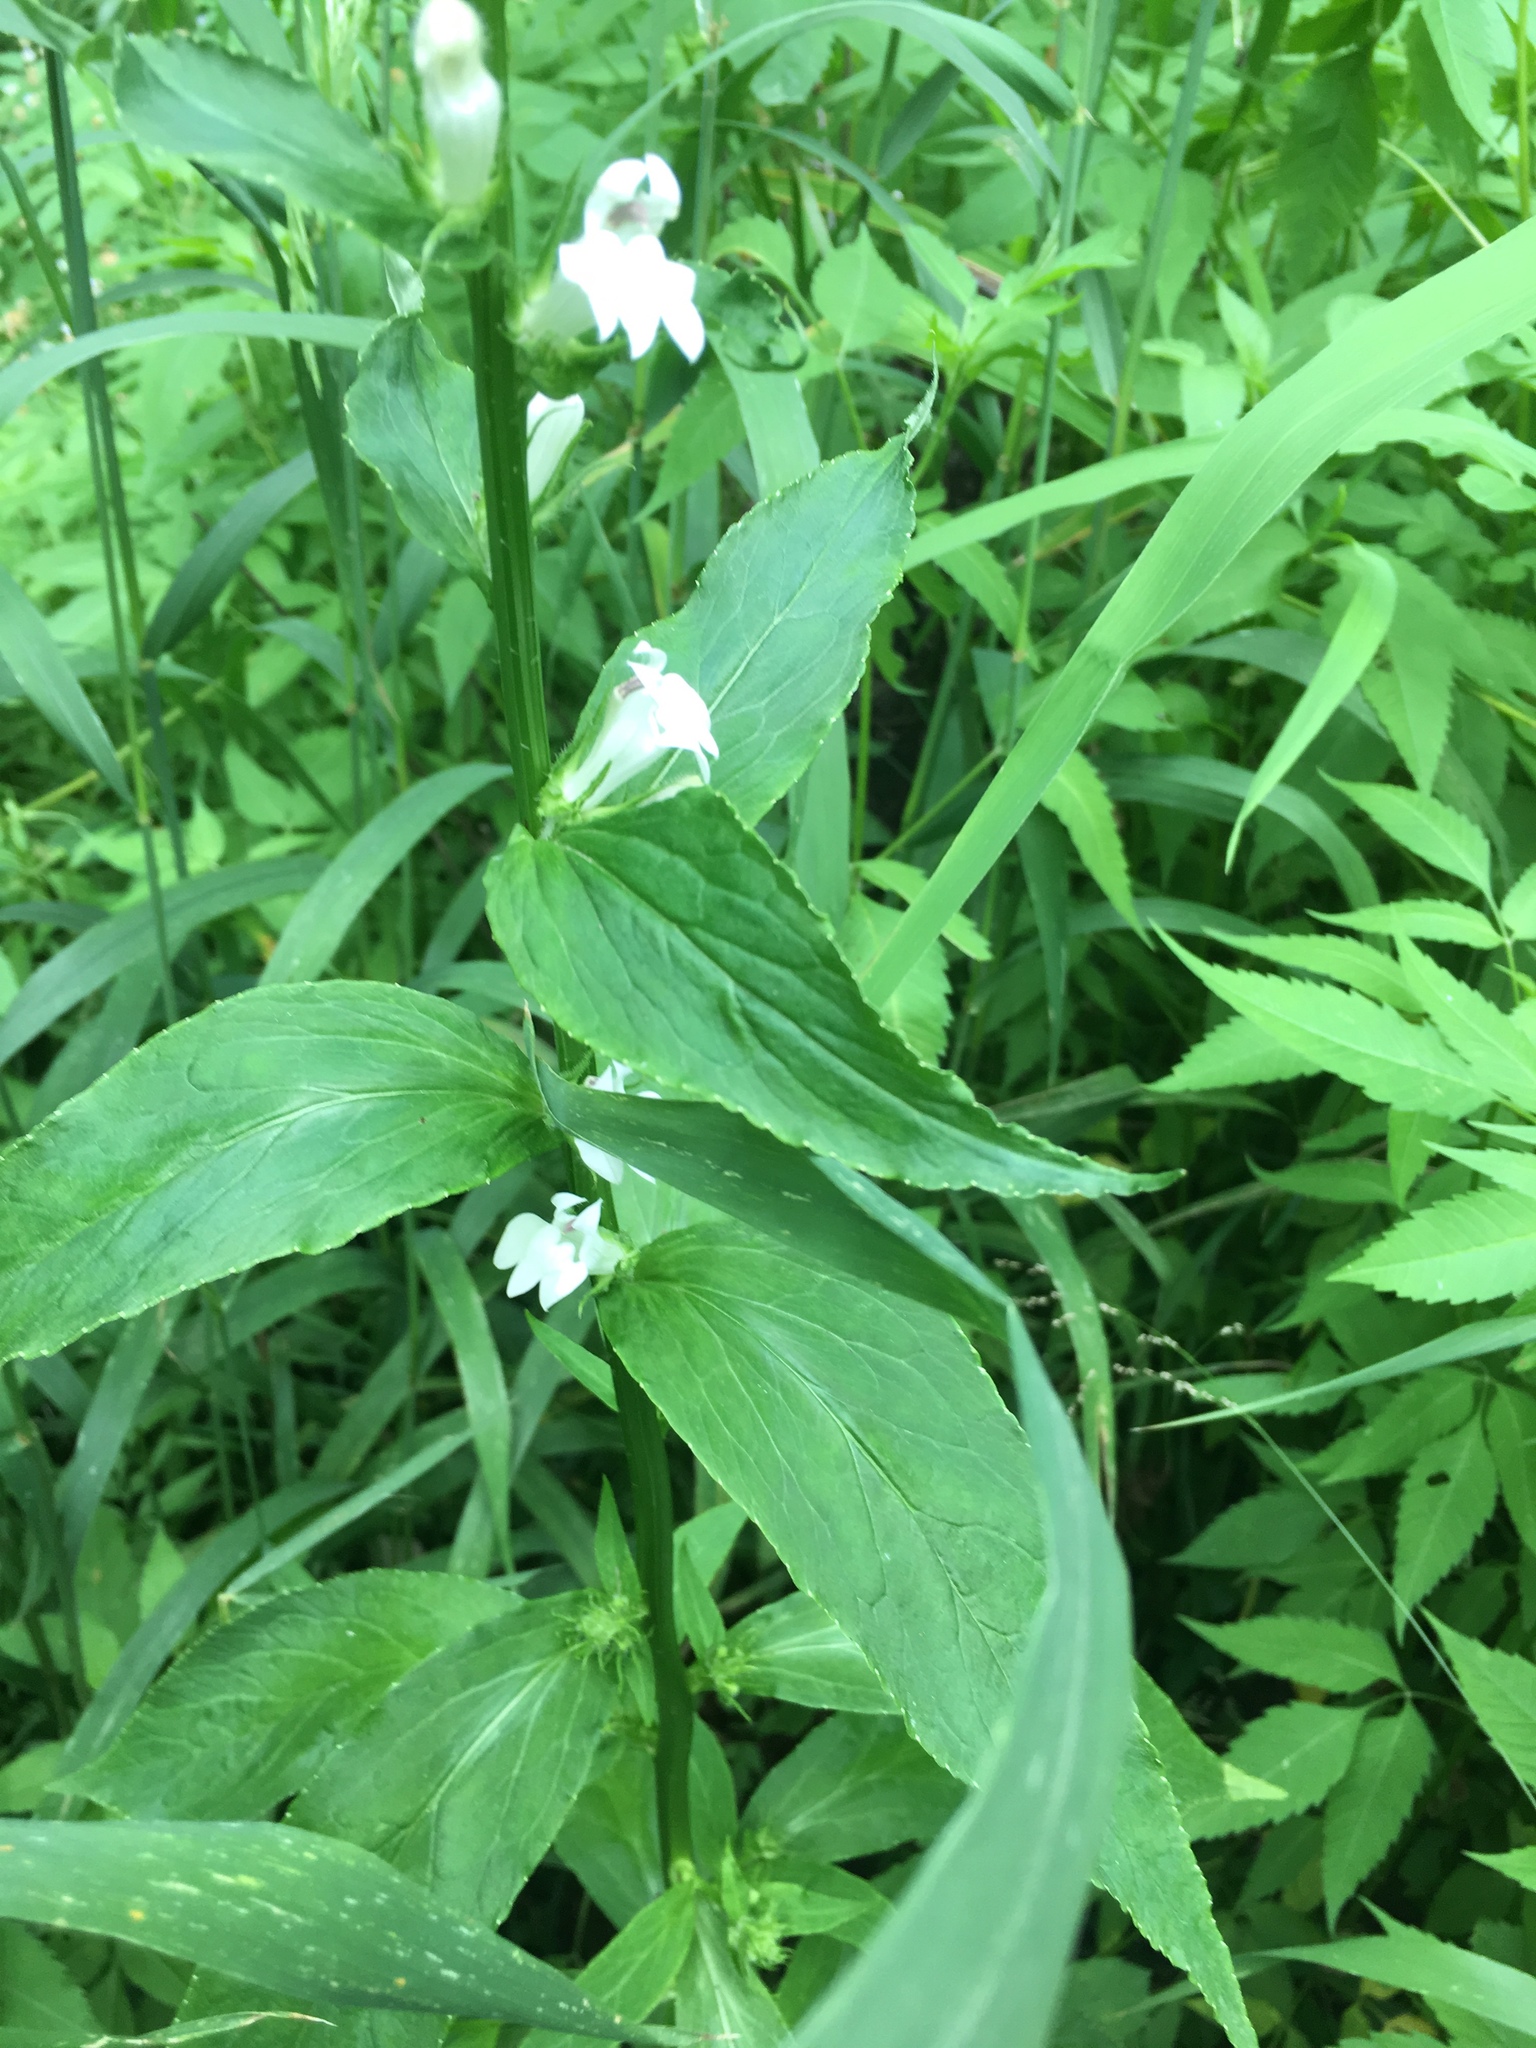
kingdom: Plantae
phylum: Tracheophyta
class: Magnoliopsida
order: Asterales
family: Campanulaceae
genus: Lobelia
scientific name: Lobelia siphilitica
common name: Great lobelia
